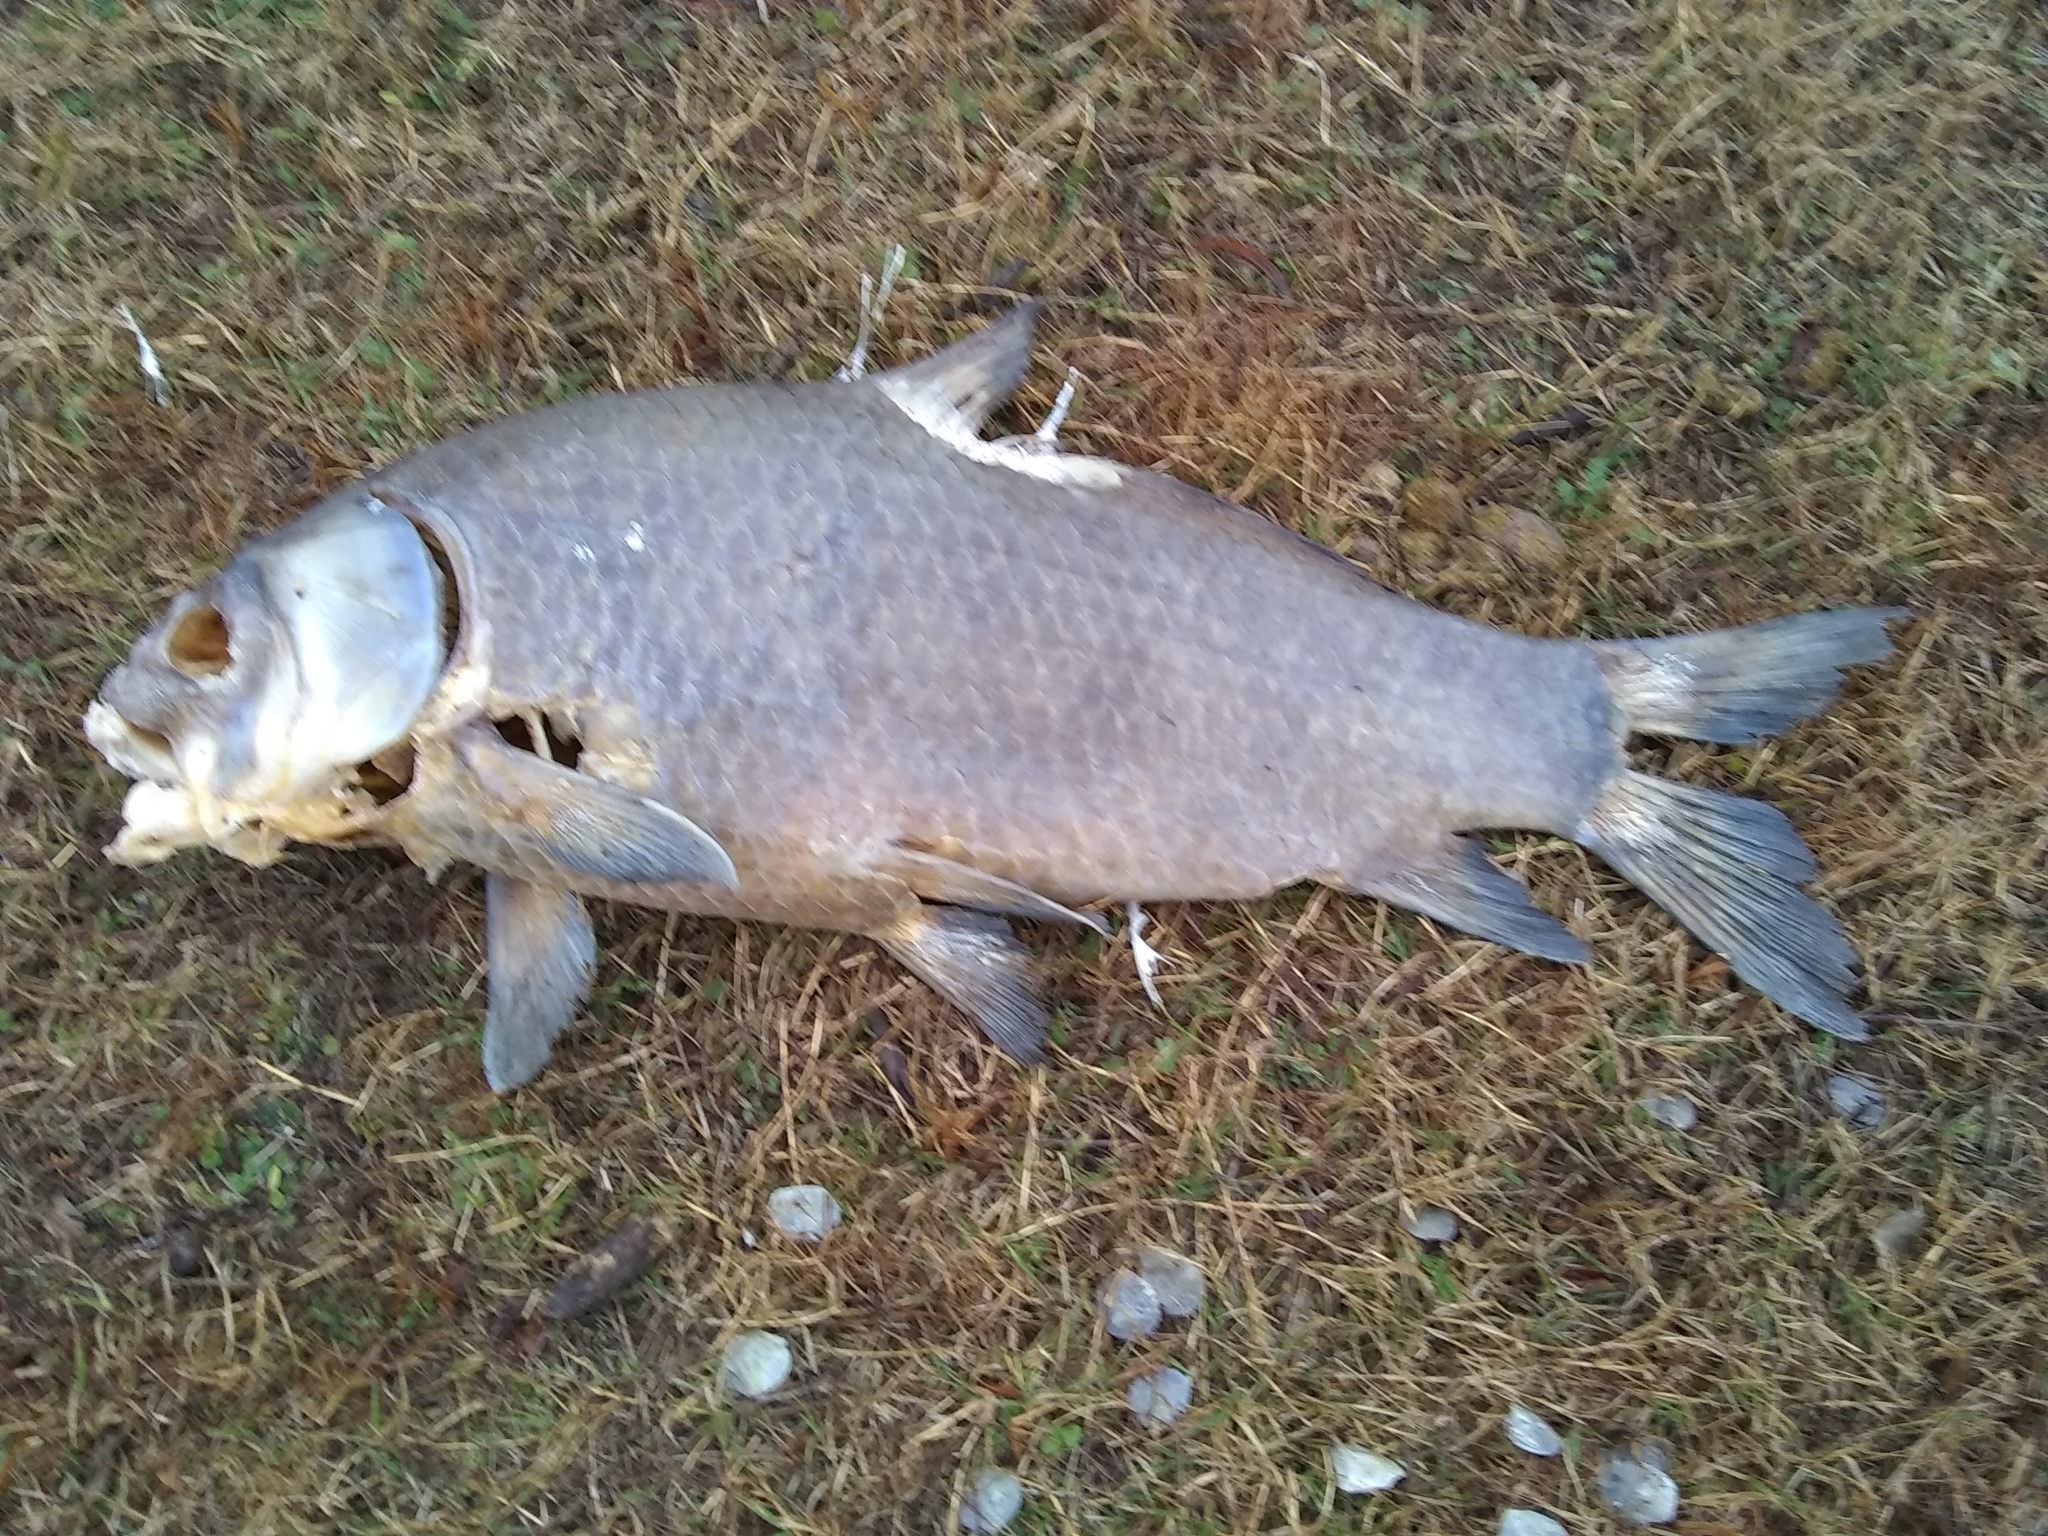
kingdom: Animalia
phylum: Chordata
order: Cypriniformes
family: Catostomidae
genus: Ictiobus
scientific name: Ictiobus bubalus
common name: Smallmouth buffalo
